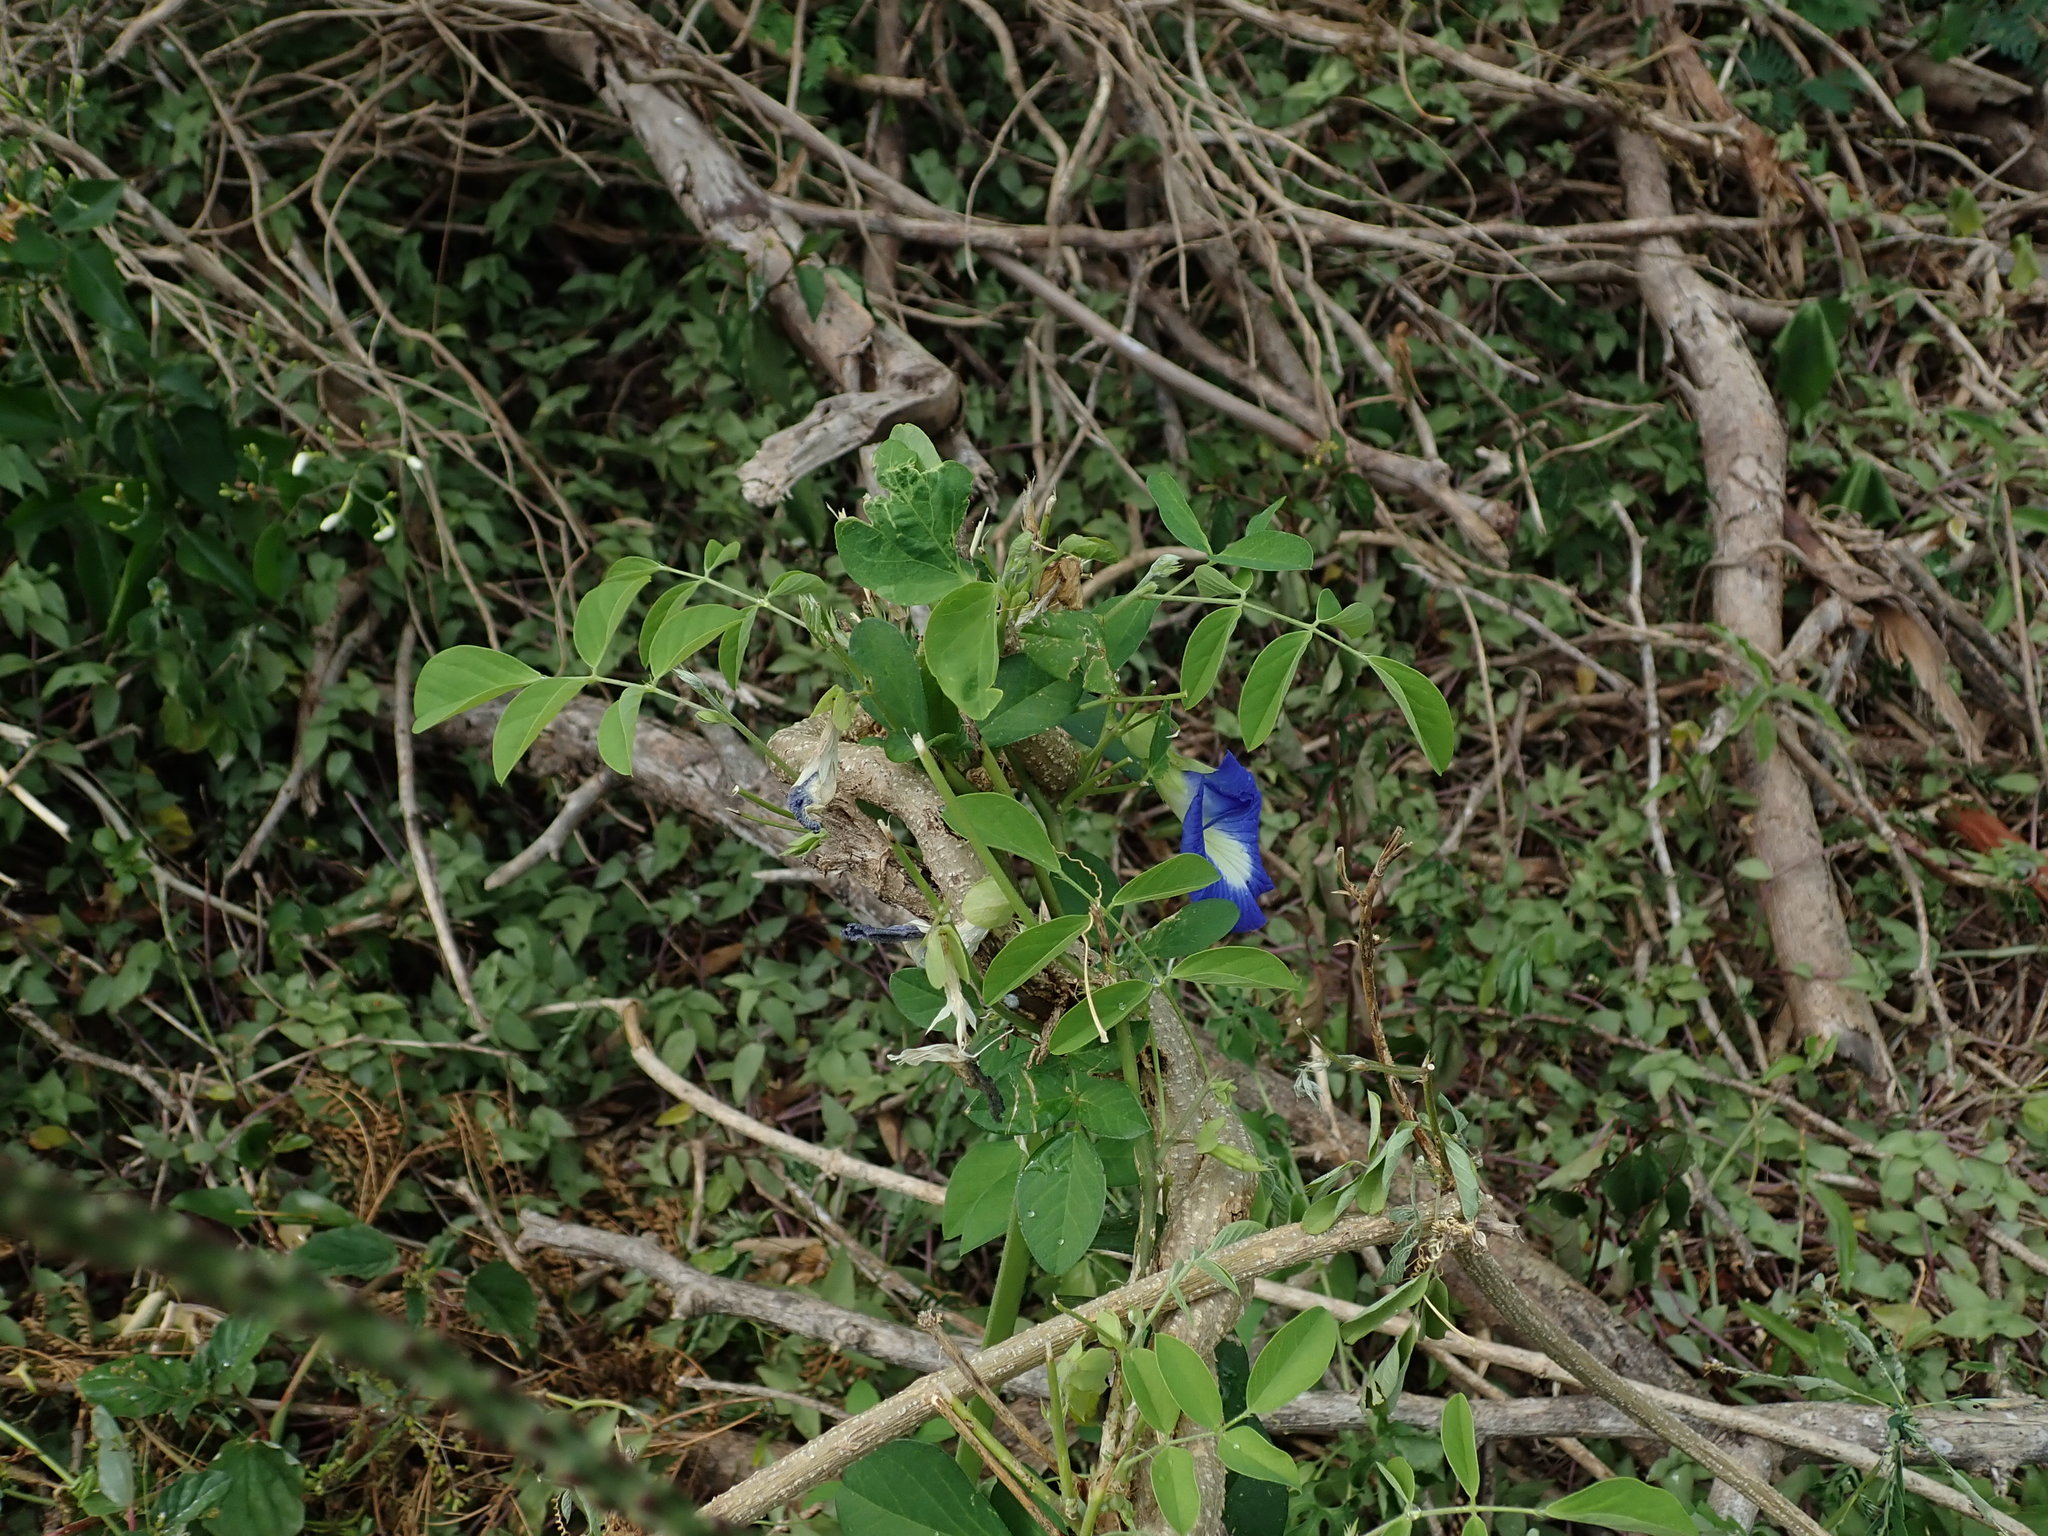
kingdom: Plantae
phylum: Tracheophyta
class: Magnoliopsida
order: Fabales
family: Fabaceae
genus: Clitoria
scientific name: Clitoria ternatea
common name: Asian pigeonwings
